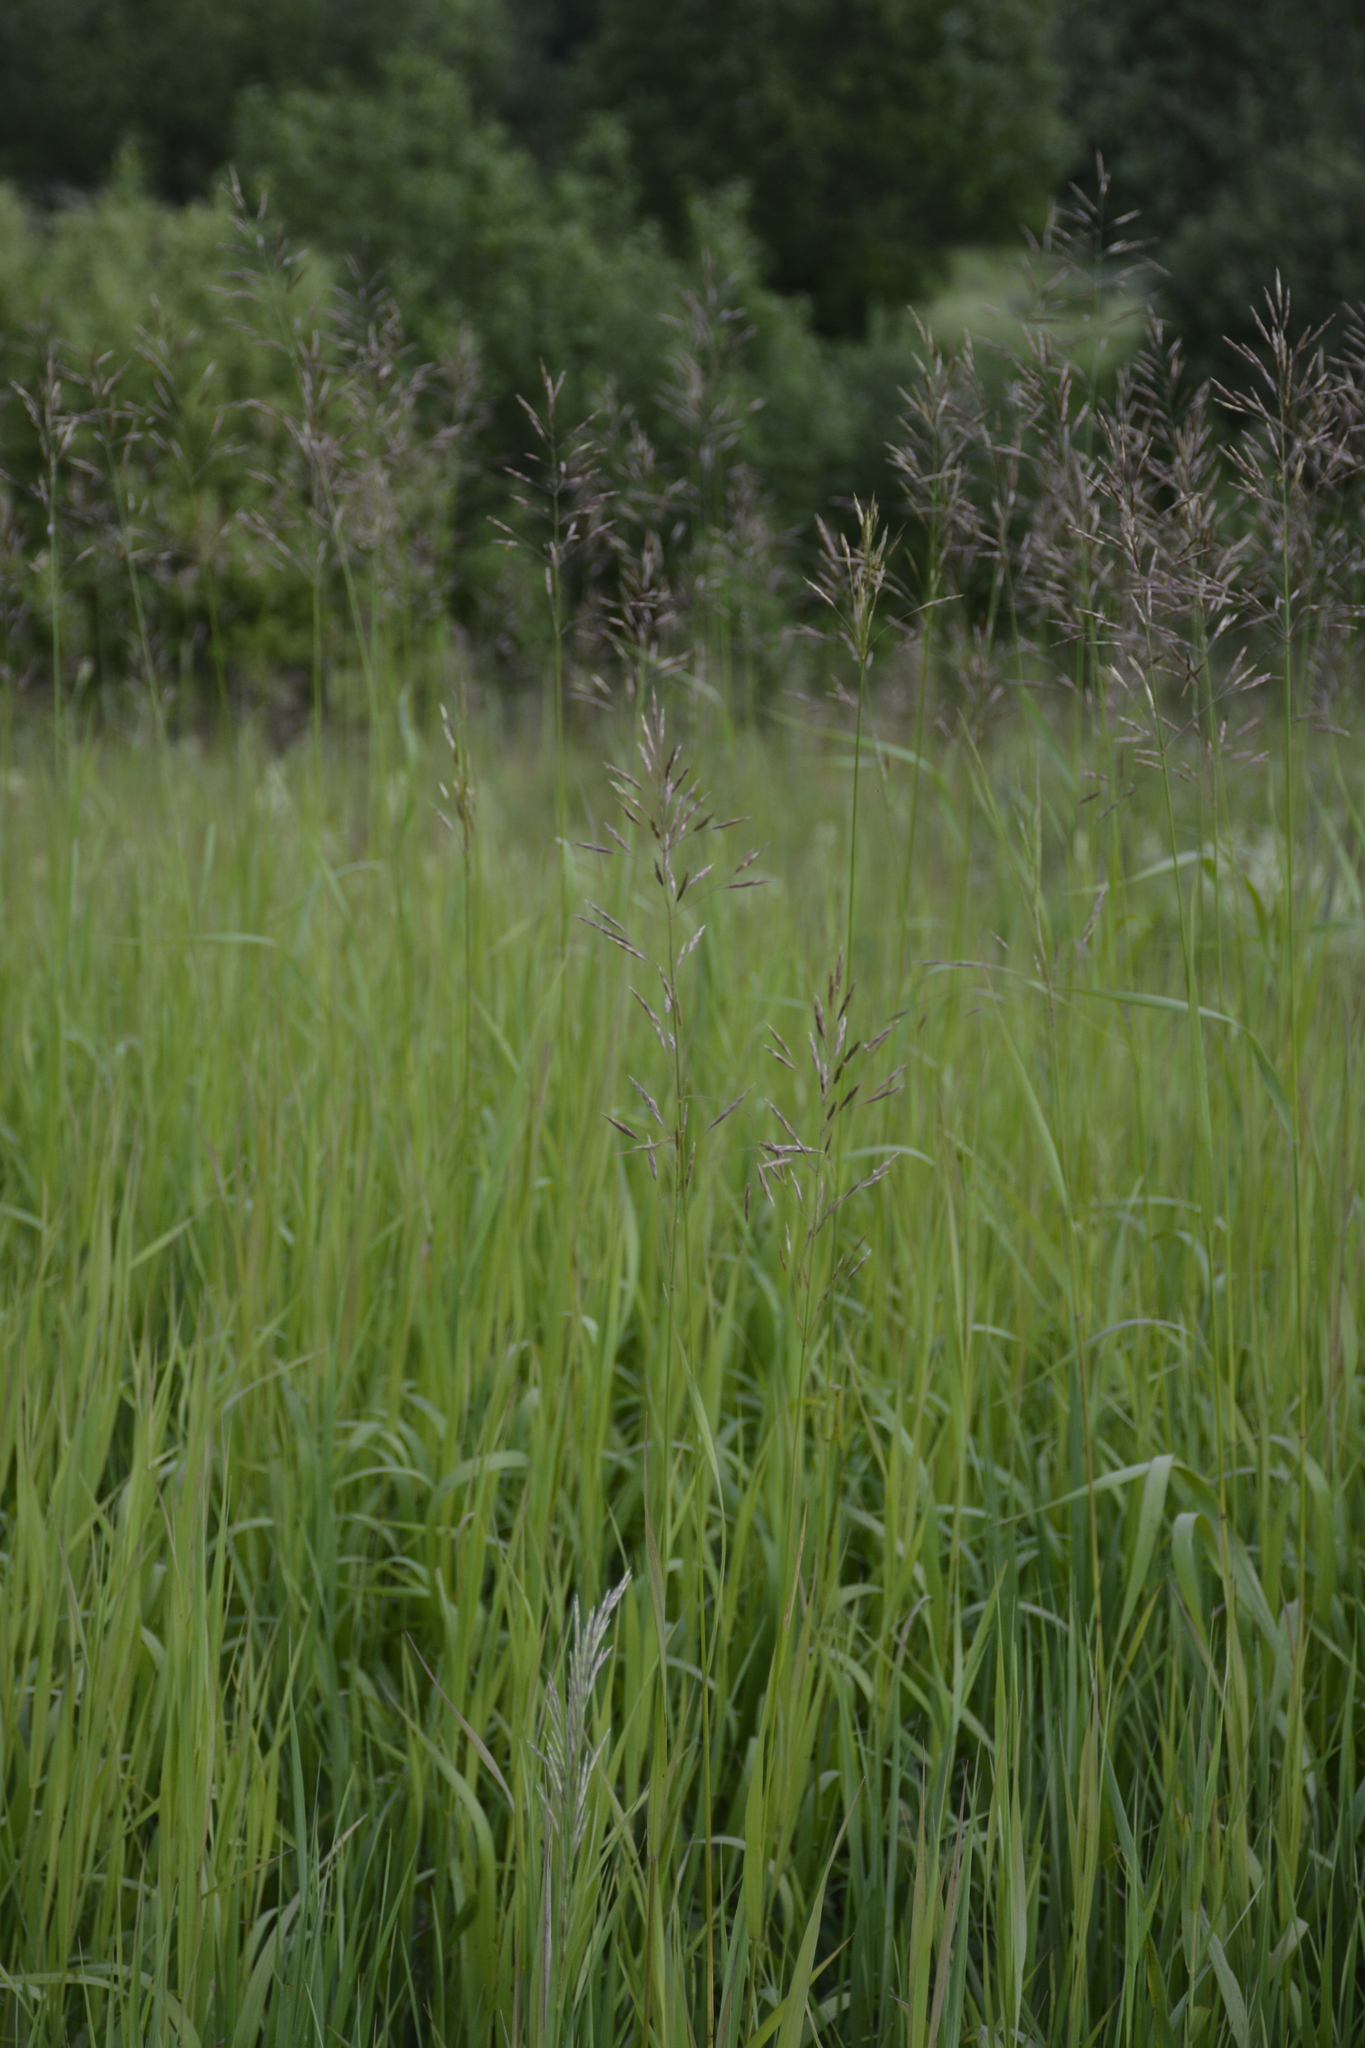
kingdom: Plantae
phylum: Tracheophyta
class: Liliopsida
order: Poales
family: Poaceae
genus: Bromus
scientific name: Bromus inermis
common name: Smooth brome
